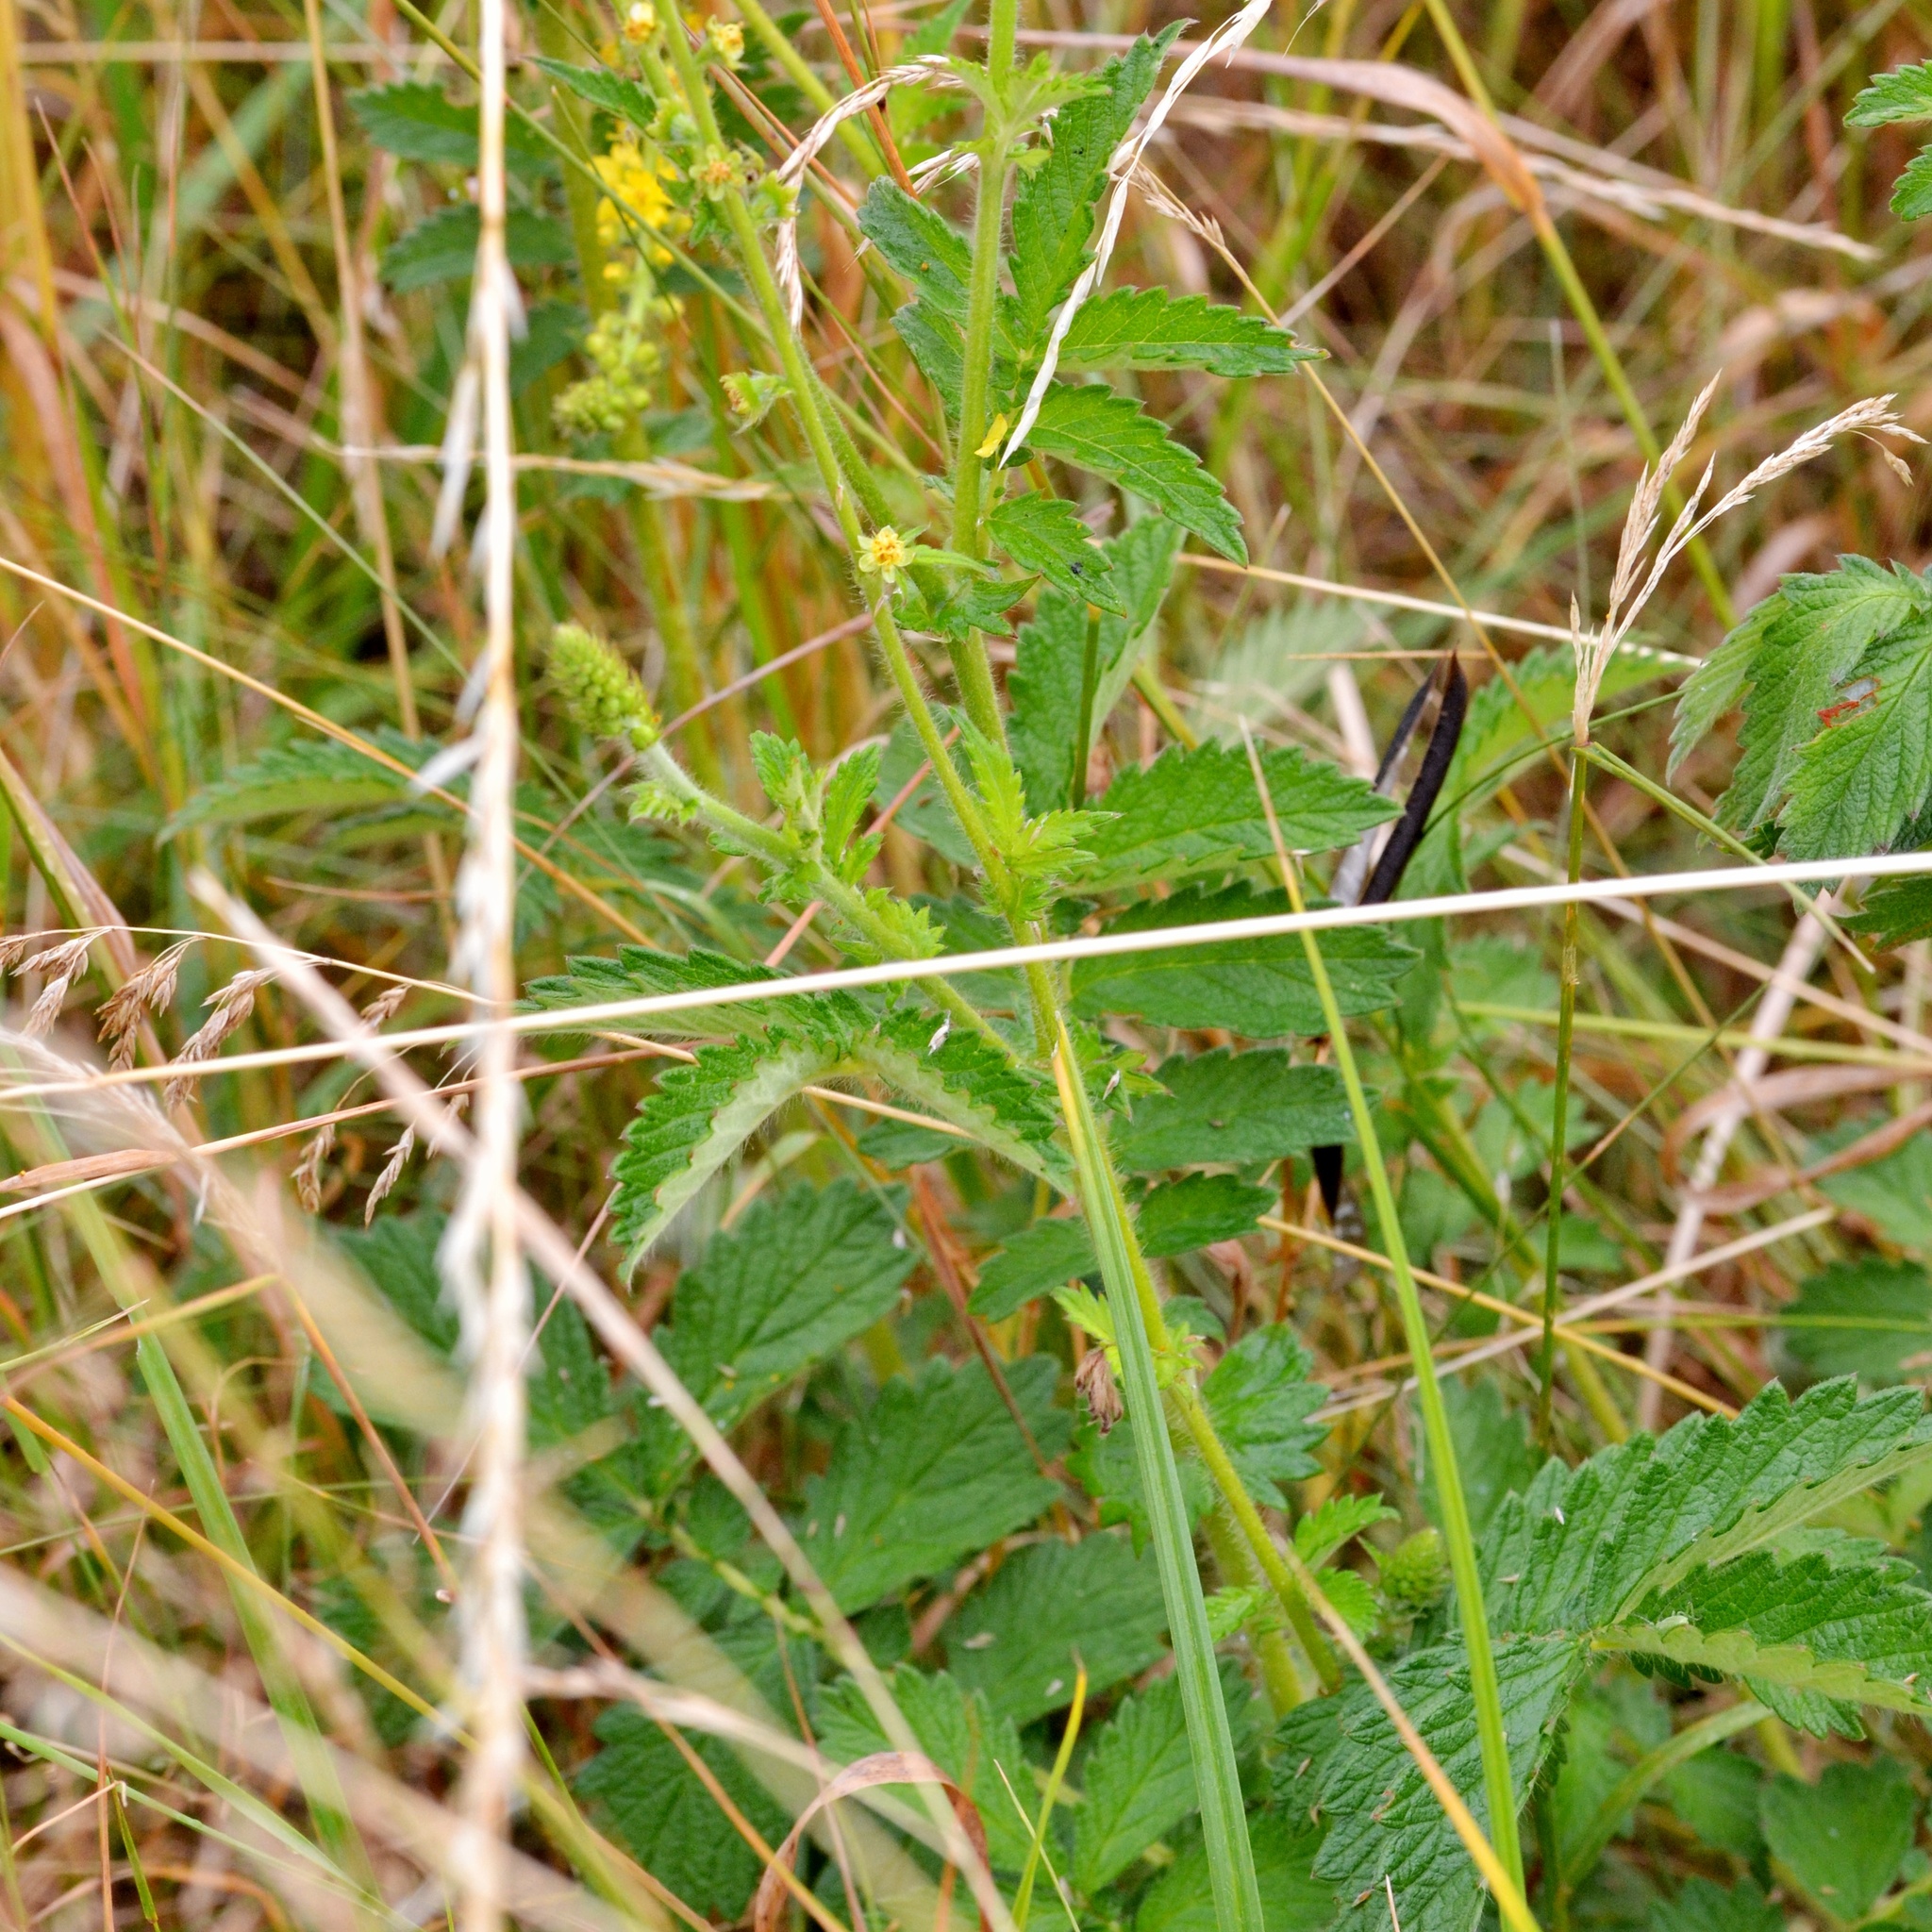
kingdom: Plantae
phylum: Tracheophyta
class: Magnoliopsida
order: Rosales
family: Rosaceae
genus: Agrimonia
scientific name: Agrimonia eupatoria
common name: Agrimony
